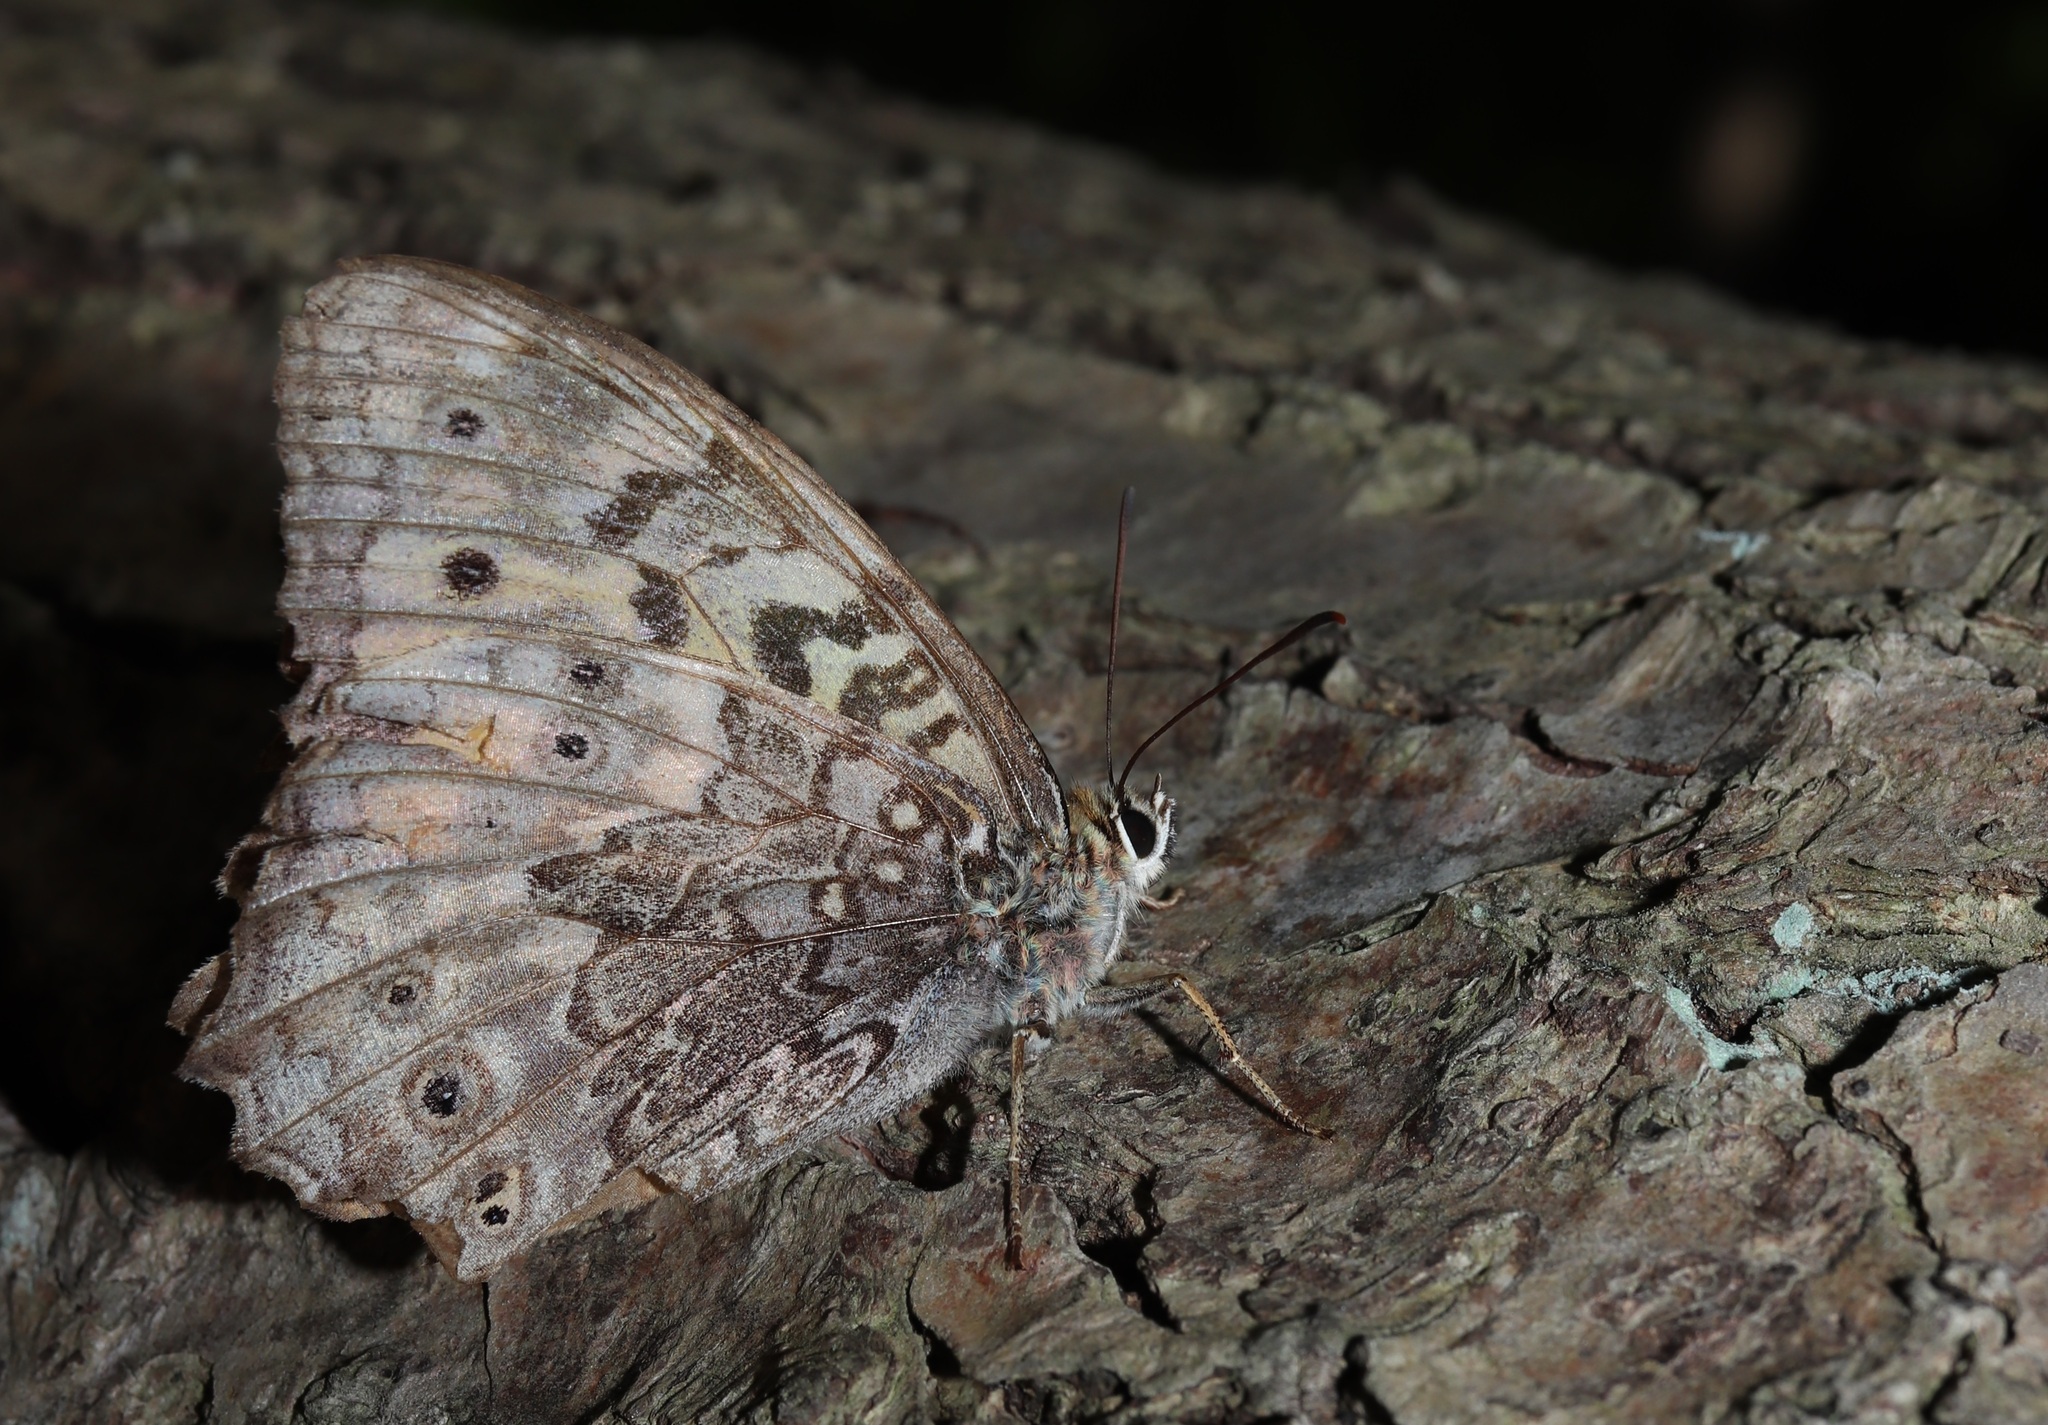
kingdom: Animalia
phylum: Arthropoda
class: Insecta
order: Lepidoptera
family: Nymphalidae
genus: Neope
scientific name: Neope goschkevitschii
